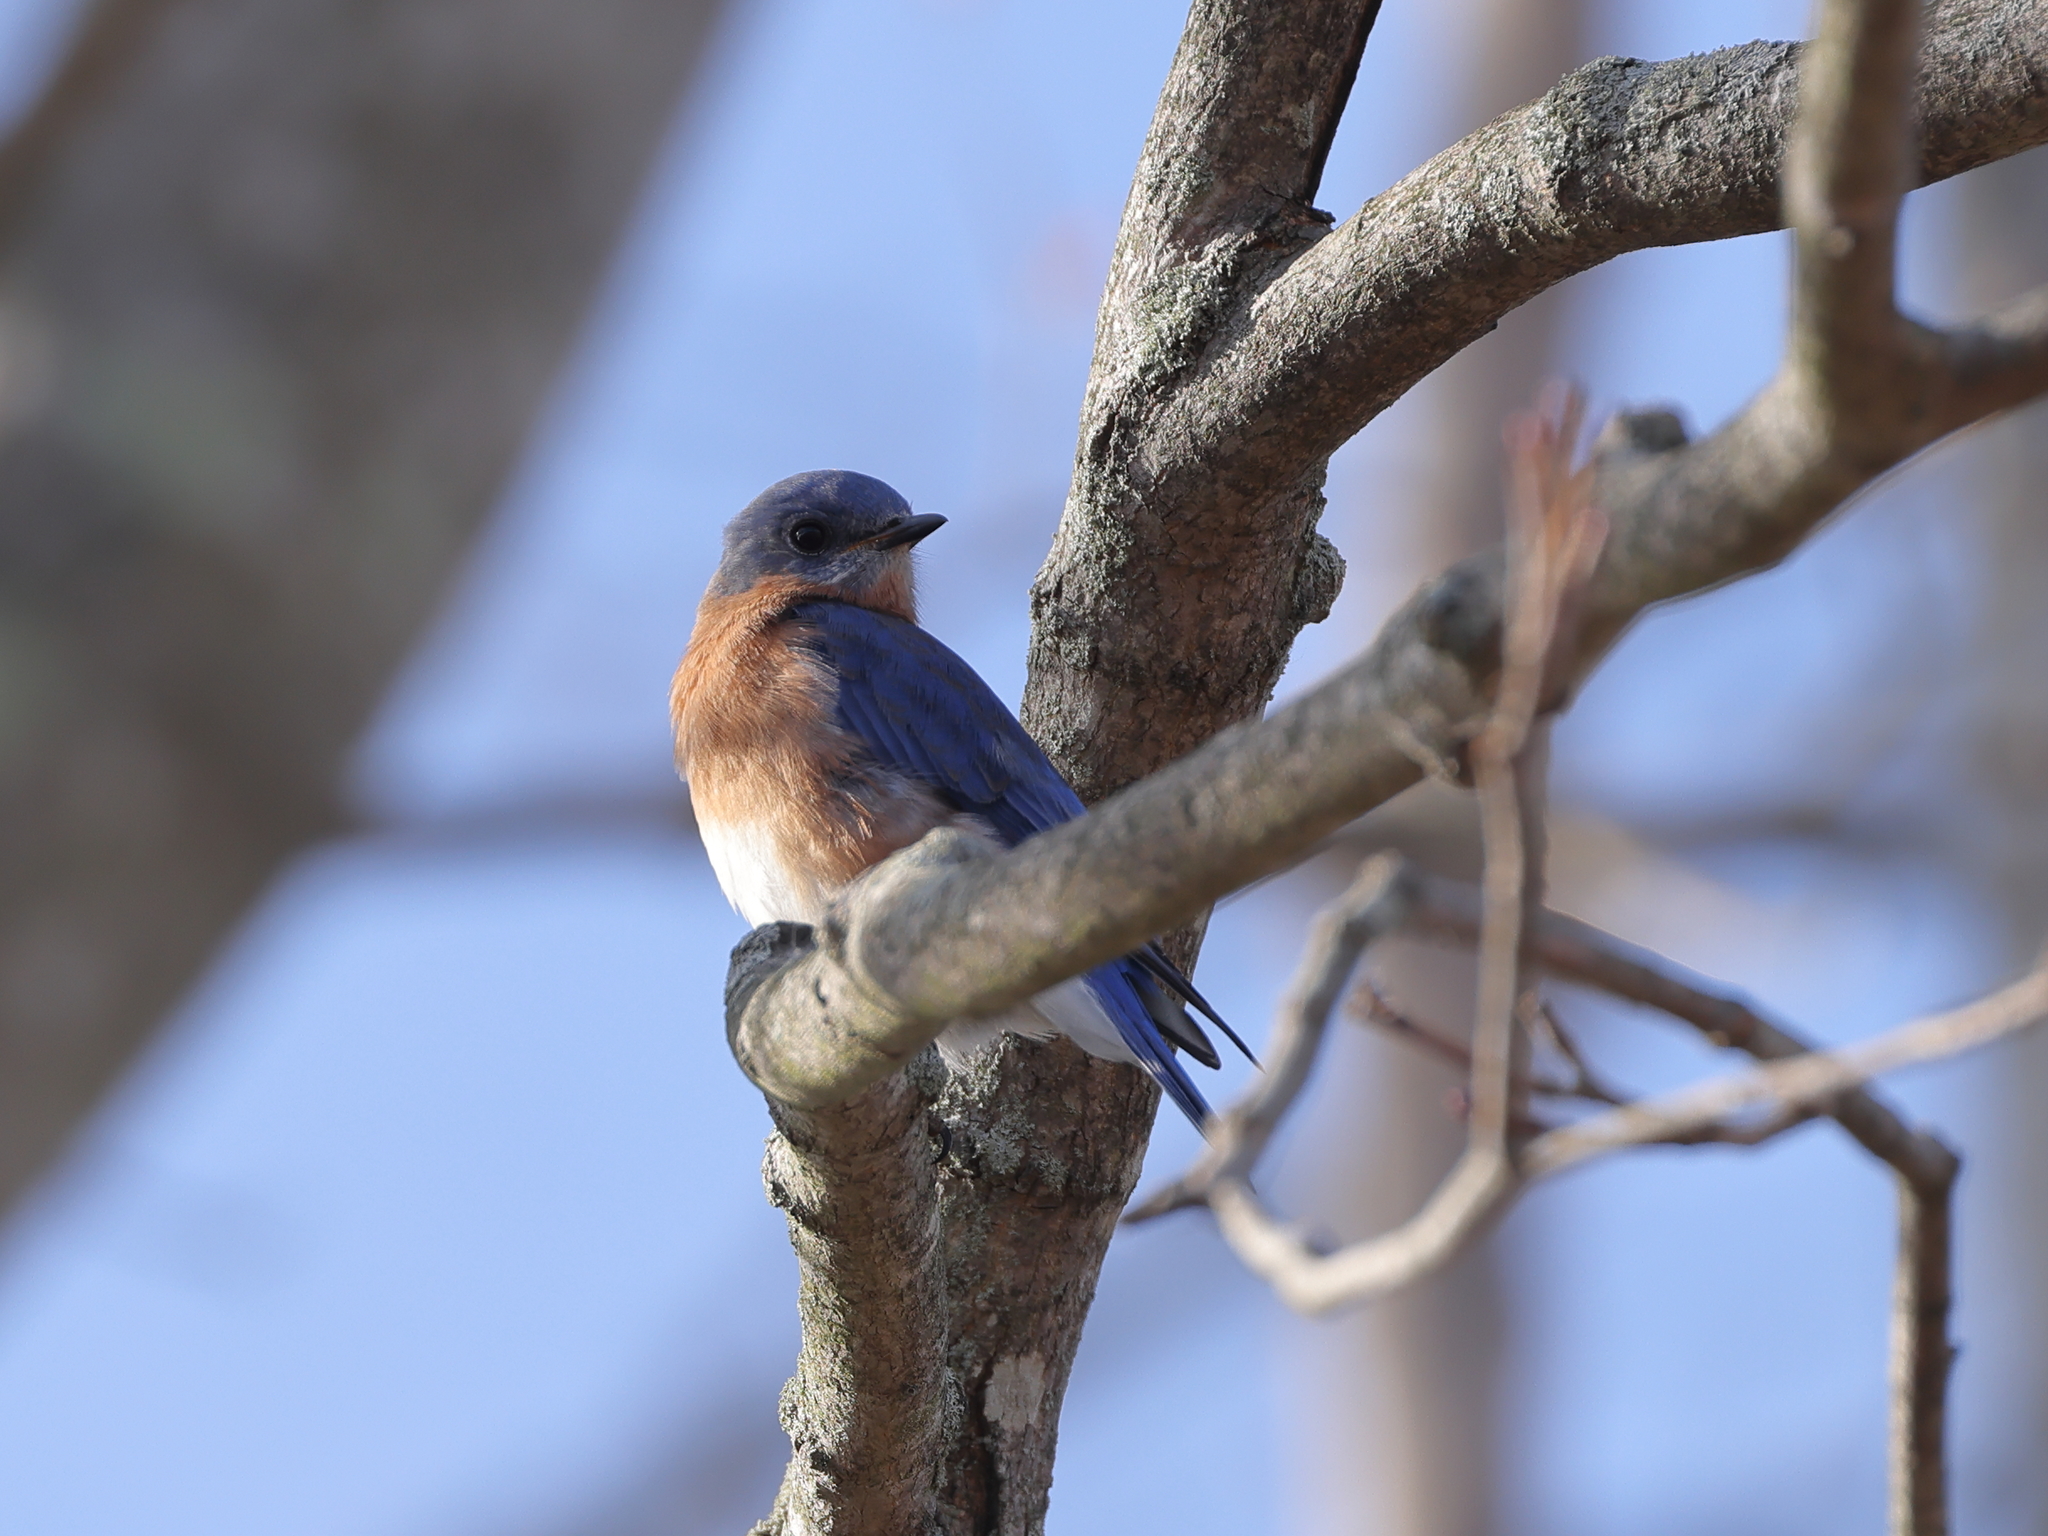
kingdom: Animalia
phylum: Chordata
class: Aves
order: Passeriformes
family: Turdidae
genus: Sialia
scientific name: Sialia sialis
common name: Eastern bluebird
